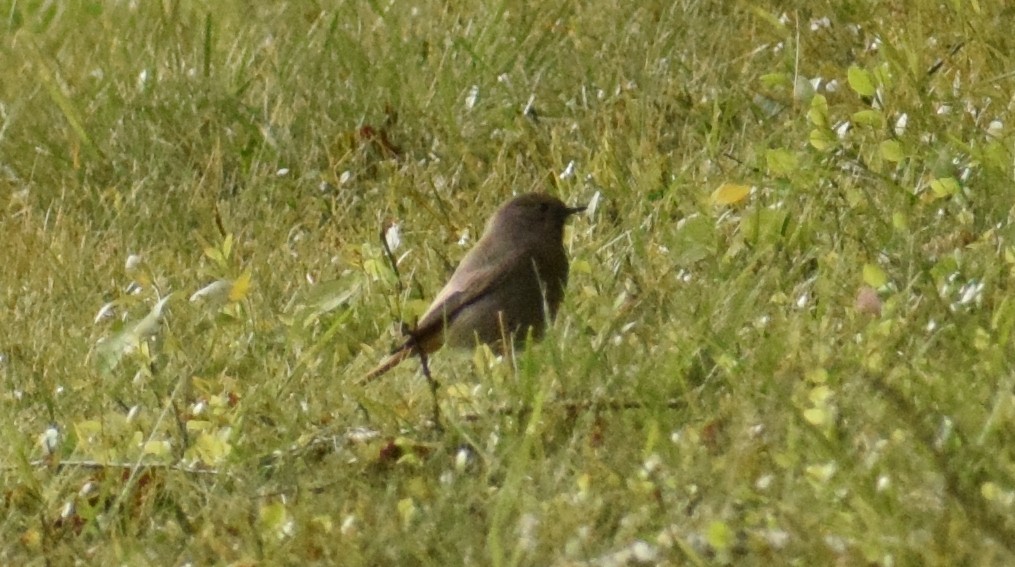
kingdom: Animalia
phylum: Chordata
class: Aves
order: Passeriformes
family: Muscicapidae
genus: Phoenicurus
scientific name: Phoenicurus ochruros
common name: Black redstart
